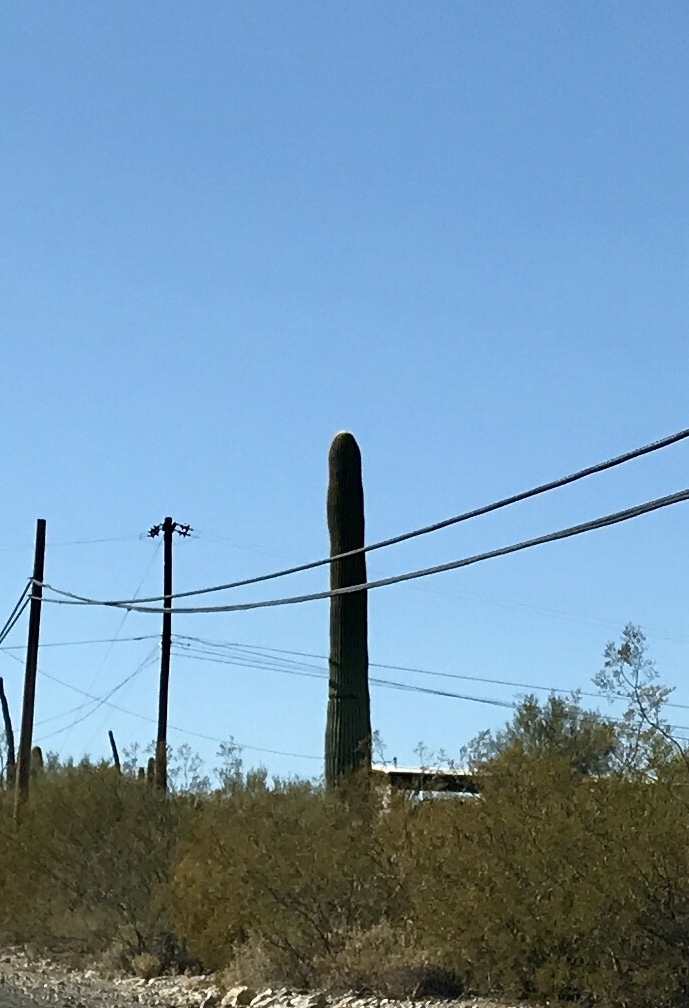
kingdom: Plantae
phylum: Tracheophyta
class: Magnoliopsida
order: Caryophyllales
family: Cactaceae
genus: Carnegiea
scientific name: Carnegiea gigantea
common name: Saguaro
